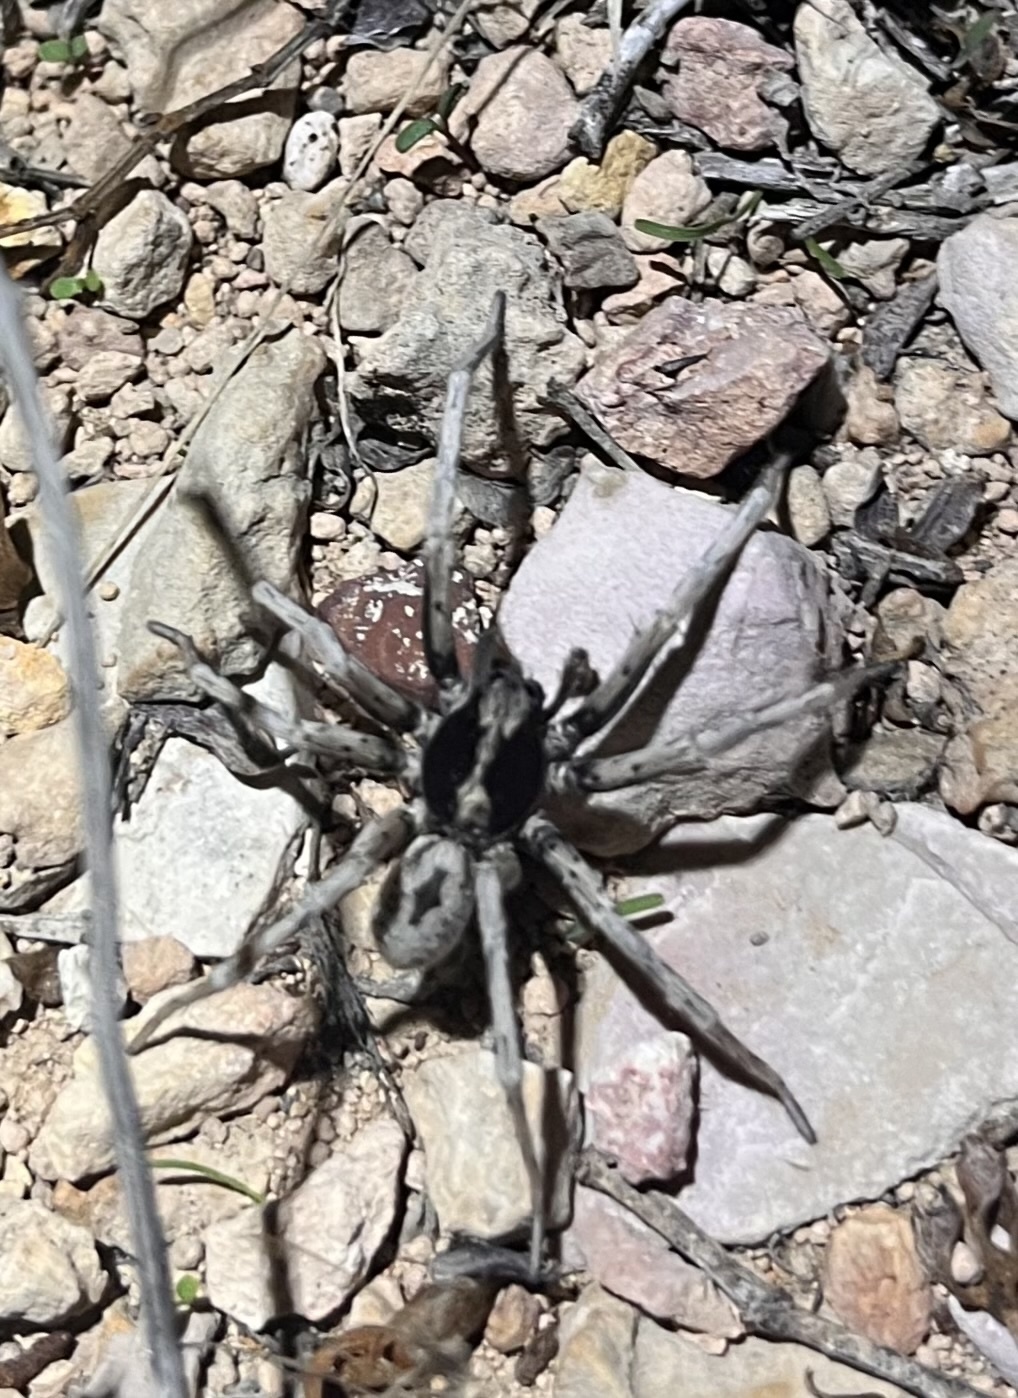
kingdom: Animalia
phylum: Arthropoda
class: Arachnida
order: Araneae
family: Lycosidae
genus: Hogna
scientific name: Hogna carolinensis
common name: Carolina wolf spider
